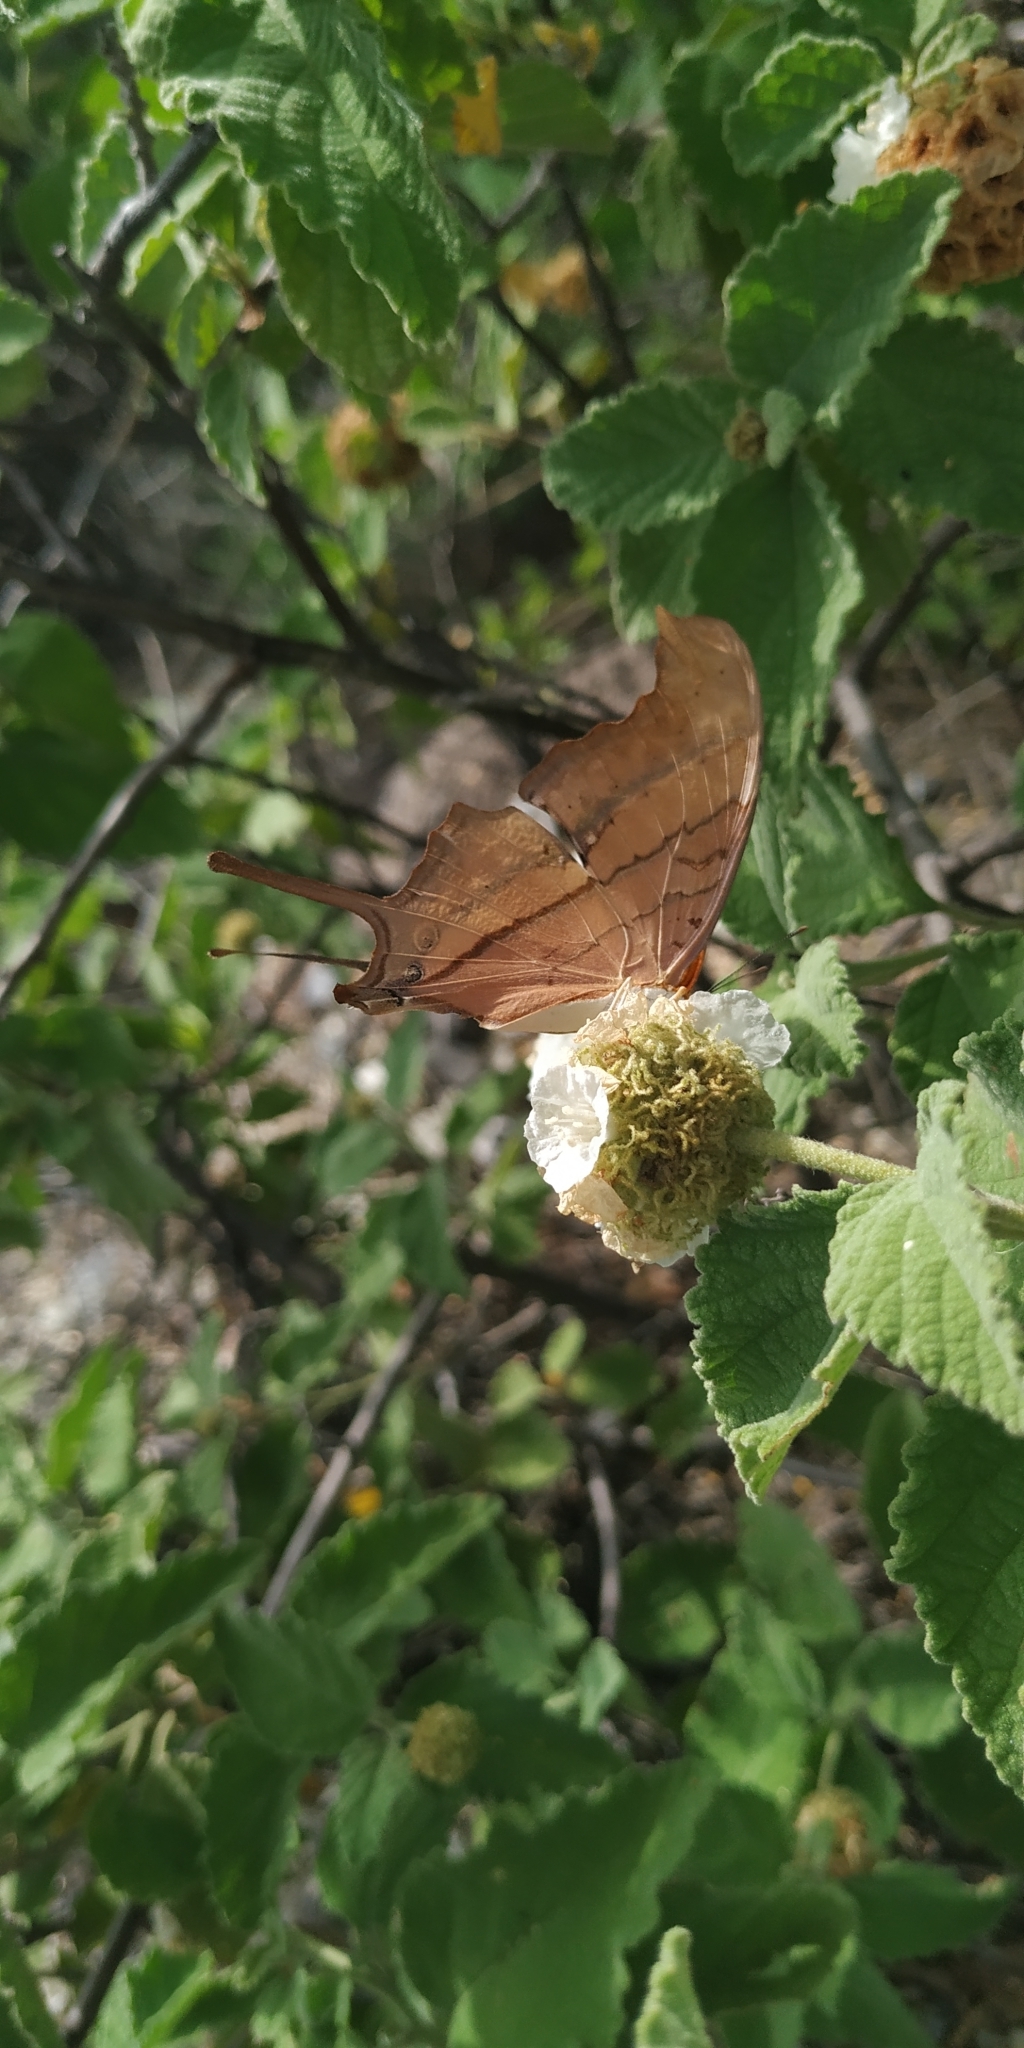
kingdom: Animalia
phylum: Arthropoda
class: Insecta
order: Lepidoptera
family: Nymphalidae
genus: Marpesia
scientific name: Marpesia petreus
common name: Red dagger wing
